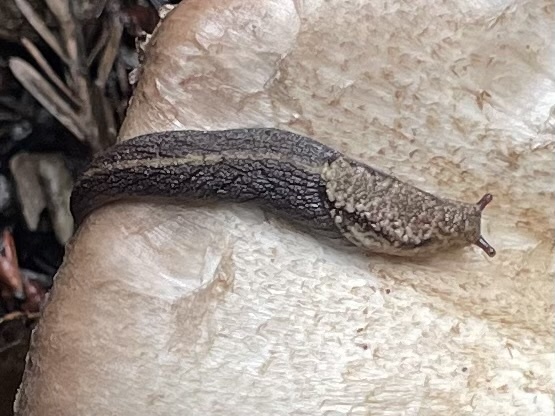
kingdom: Animalia
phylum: Mollusca
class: Gastropoda
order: Stylommatophora
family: Ariolimacidae
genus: Prophysaon
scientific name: Prophysaon andersonii
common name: Reticulate taildropper
